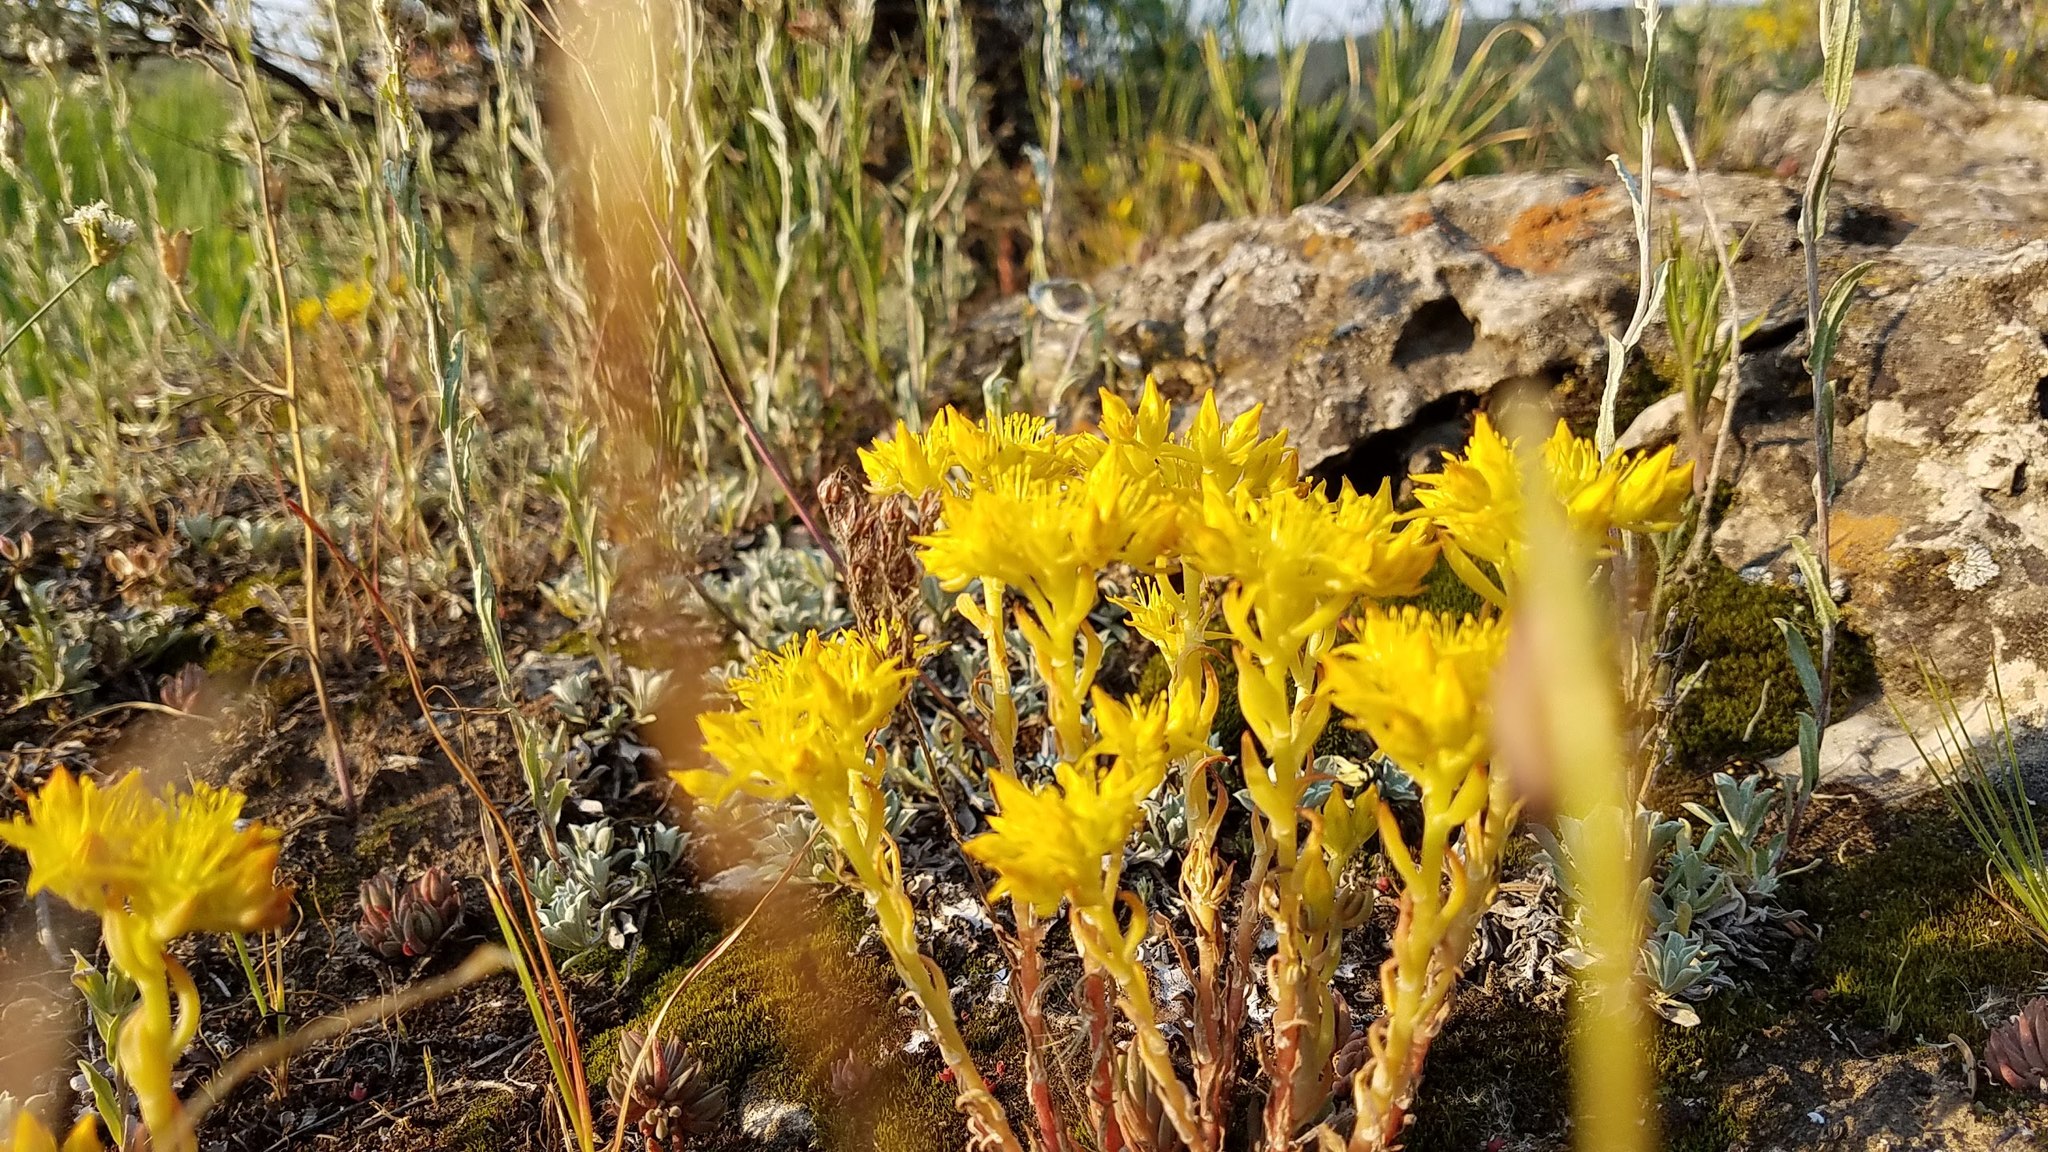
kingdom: Plantae
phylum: Tracheophyta
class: Magnoliopsida
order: Saxifragales
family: Crassulaceae
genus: Sedum
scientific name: Sedum lanceolatum
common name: Common stonecrop
